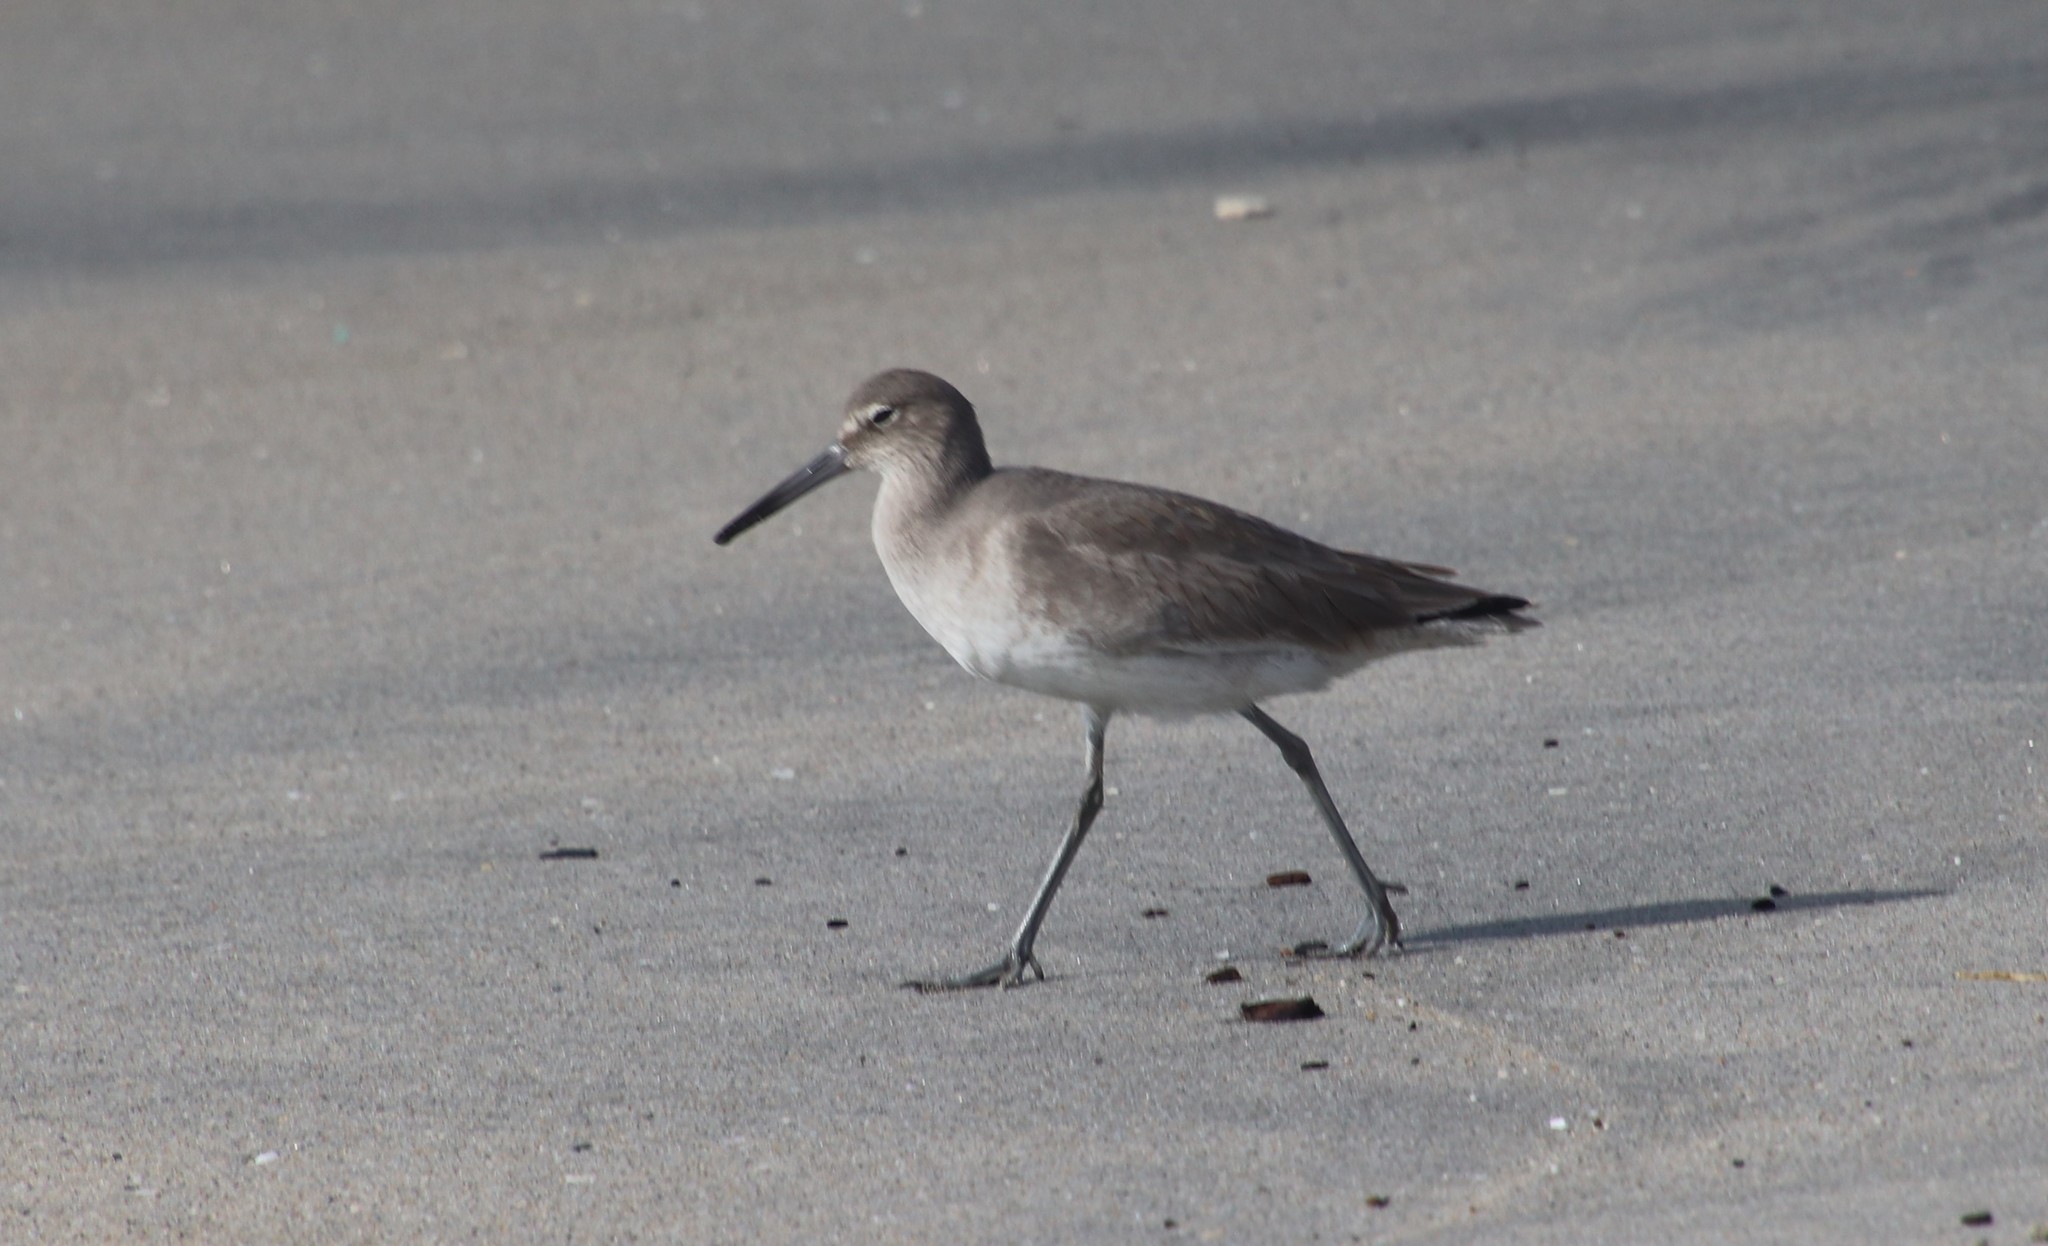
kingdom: Animalia
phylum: Chordata
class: Aves
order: Charadriiformes
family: Scolopacidae
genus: Tringa
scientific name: Tringa semipalmata
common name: Willet
